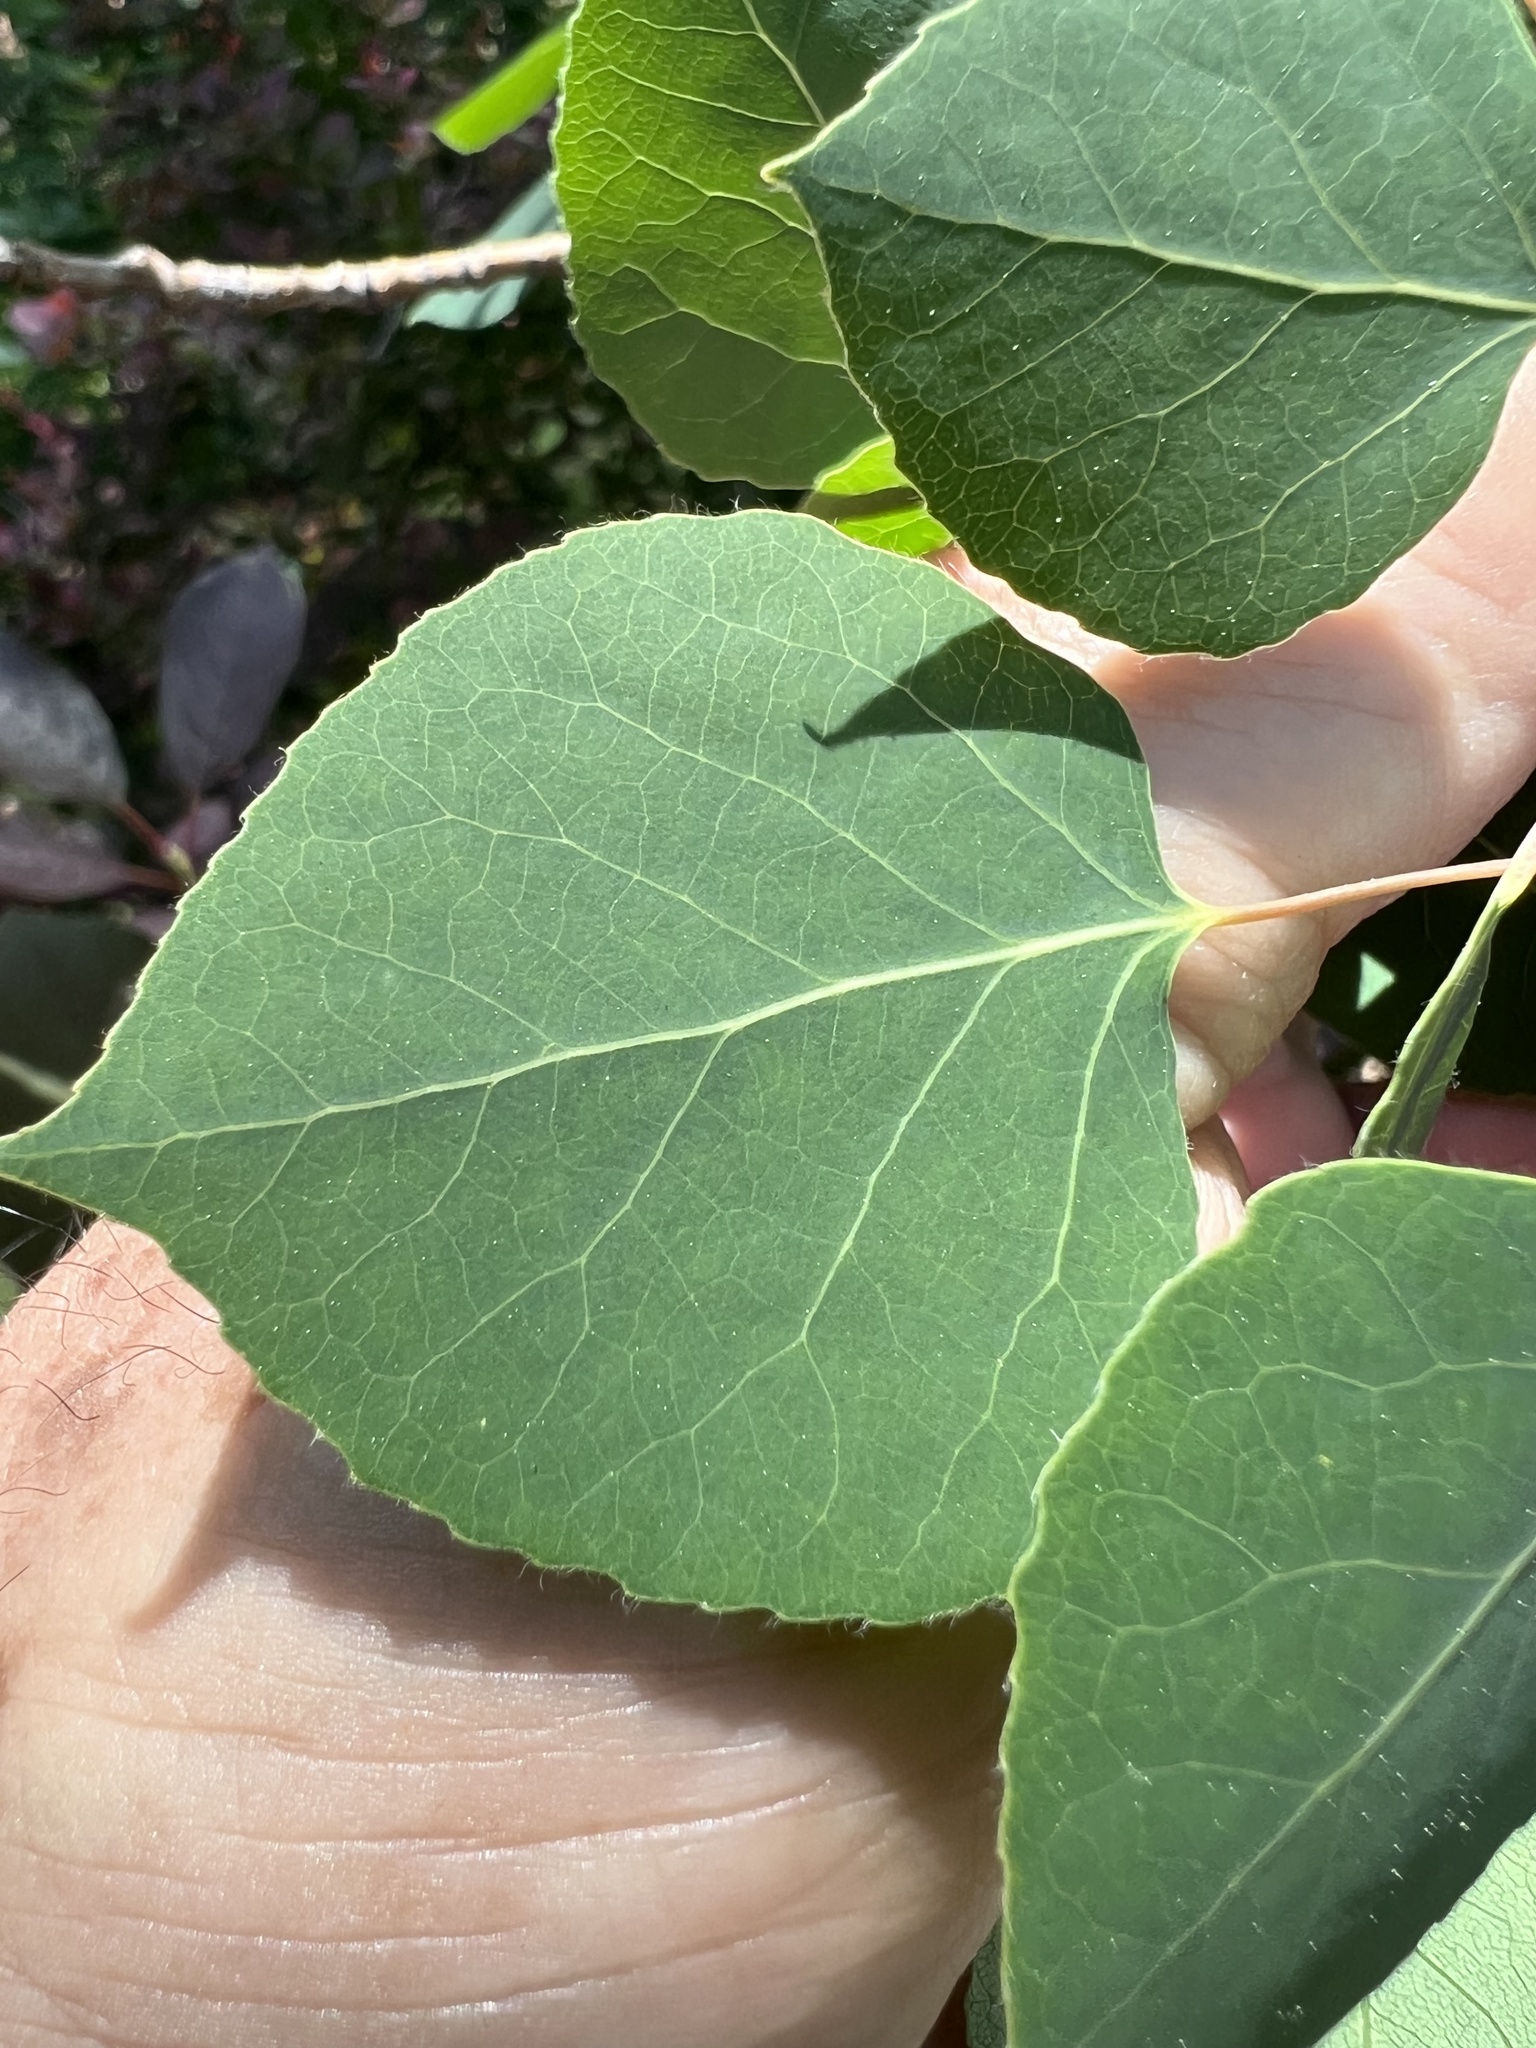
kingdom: Plantae
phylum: Tracheophyta
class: Magnoliopsida
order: Malpighiales
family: Salicaceae
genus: Populus
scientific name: Populus tremuloides
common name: Quaking aspen
